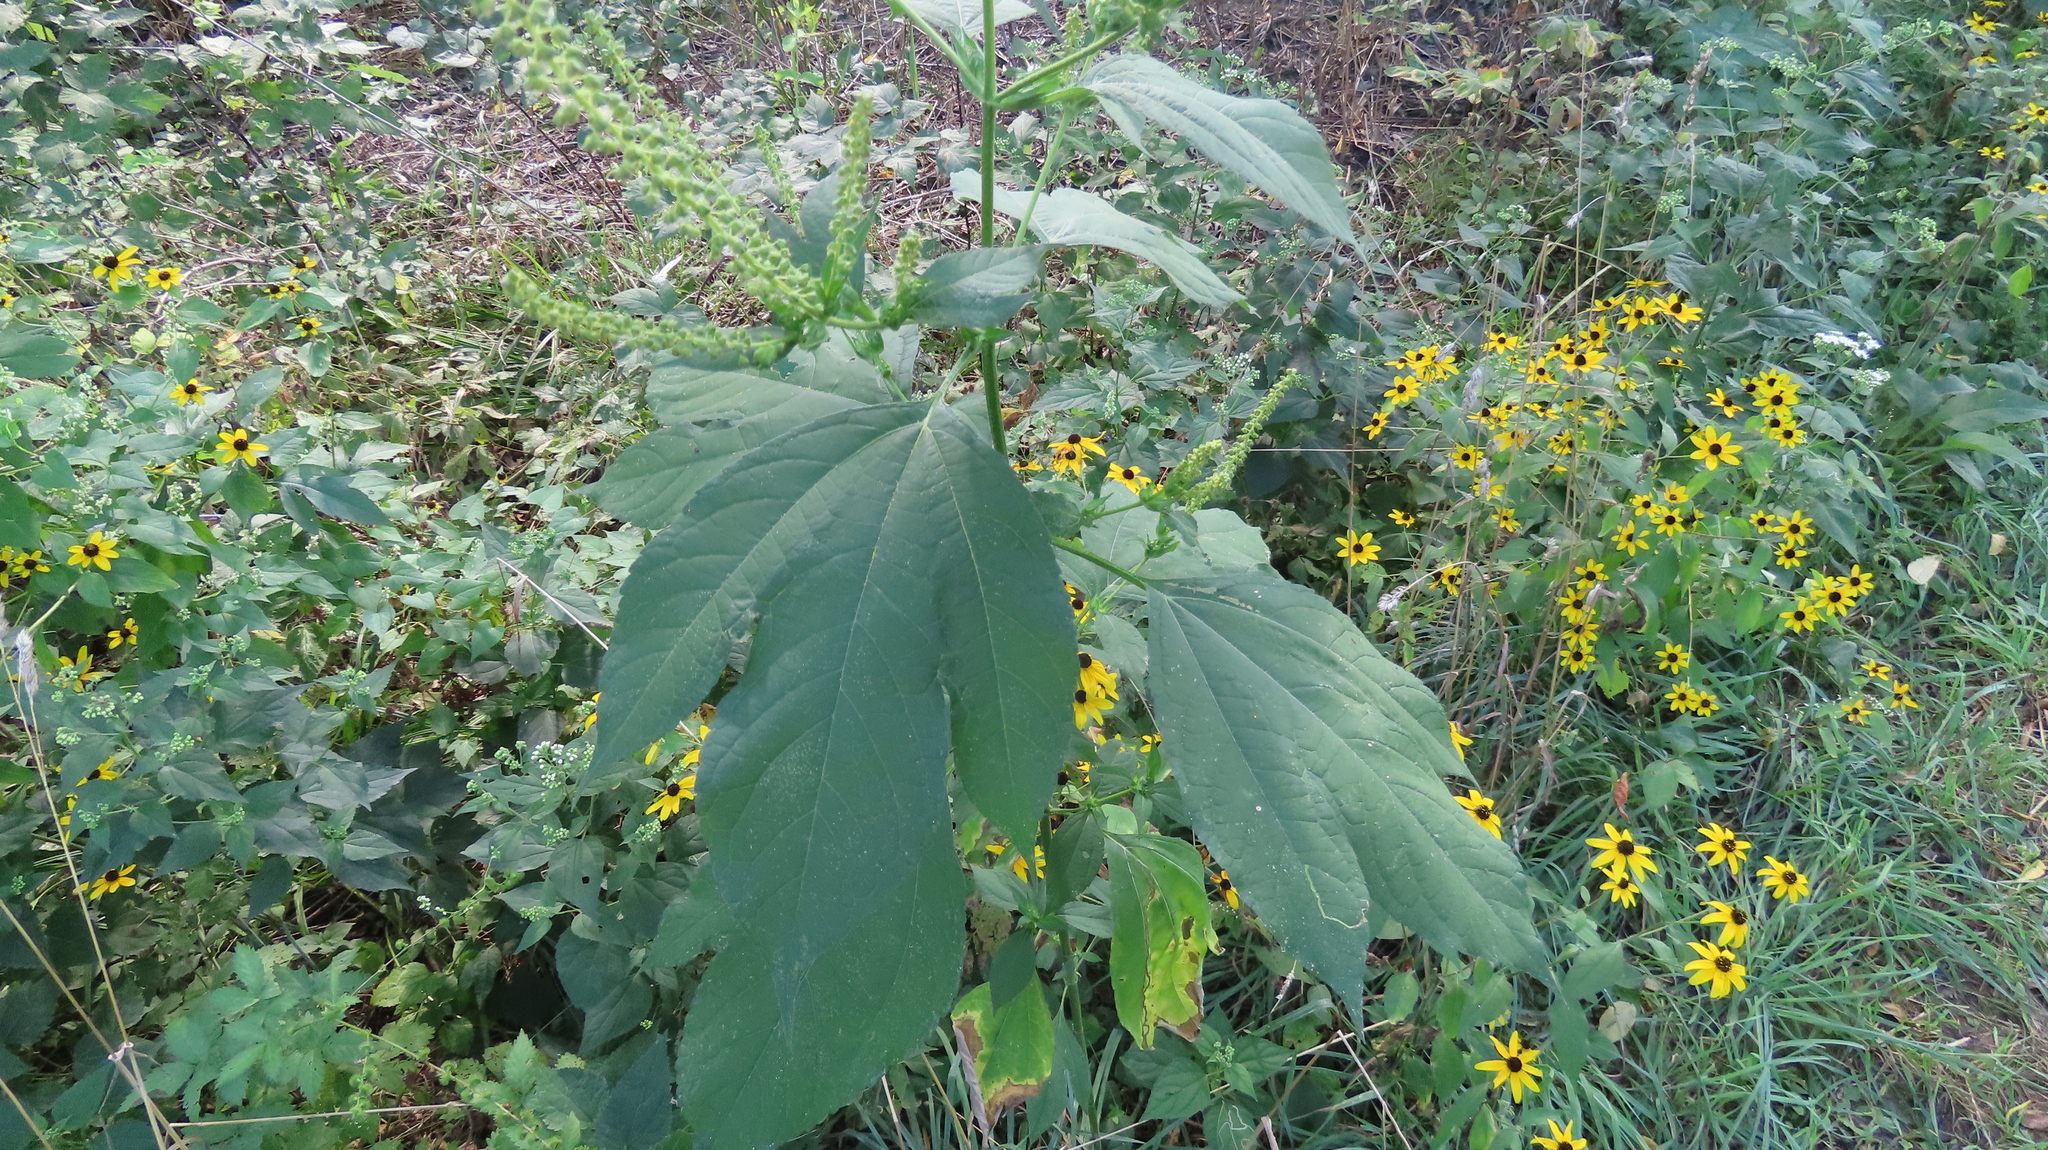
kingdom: Plantae
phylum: Tracheophyta
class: Magnoliopsida
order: Asterales
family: Asteraceae
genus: Ambrosia
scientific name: Ambrosia trifida
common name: Giant ragweed
